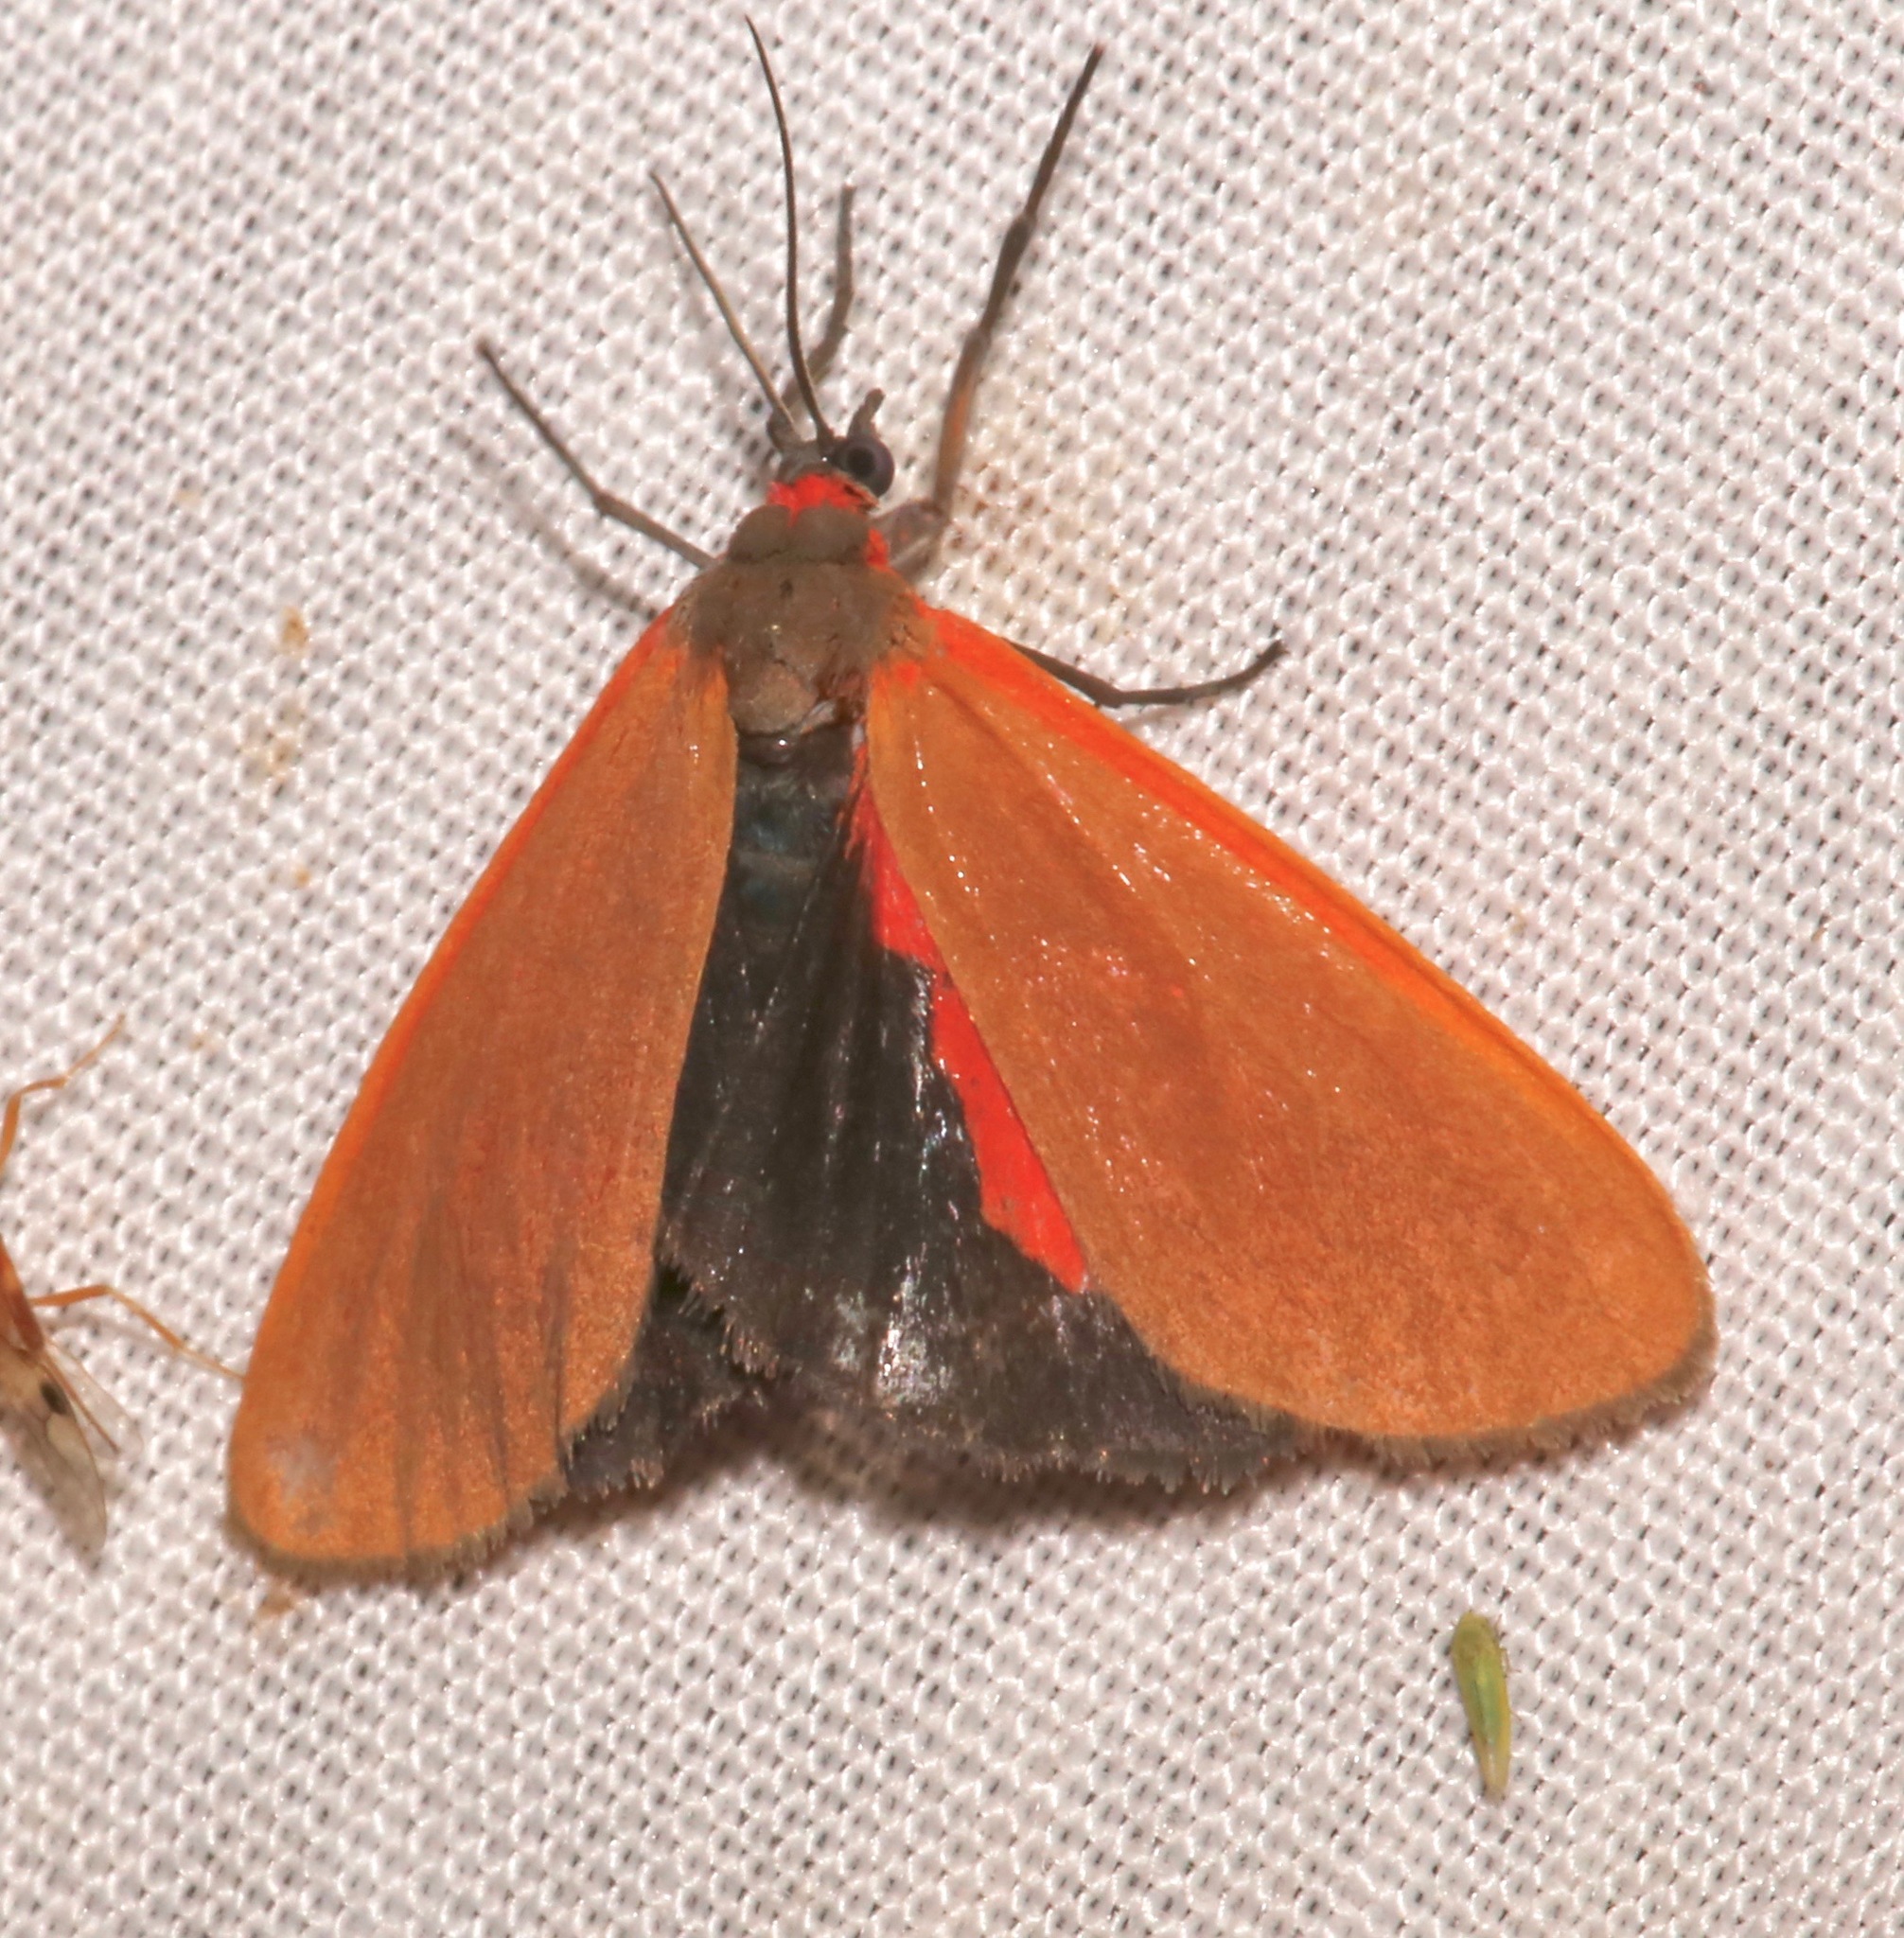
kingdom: Animalia
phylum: Arthropoda
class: Insecta
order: Lepidoptera
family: Erebidae
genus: Virbia
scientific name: Virbia ostenta
